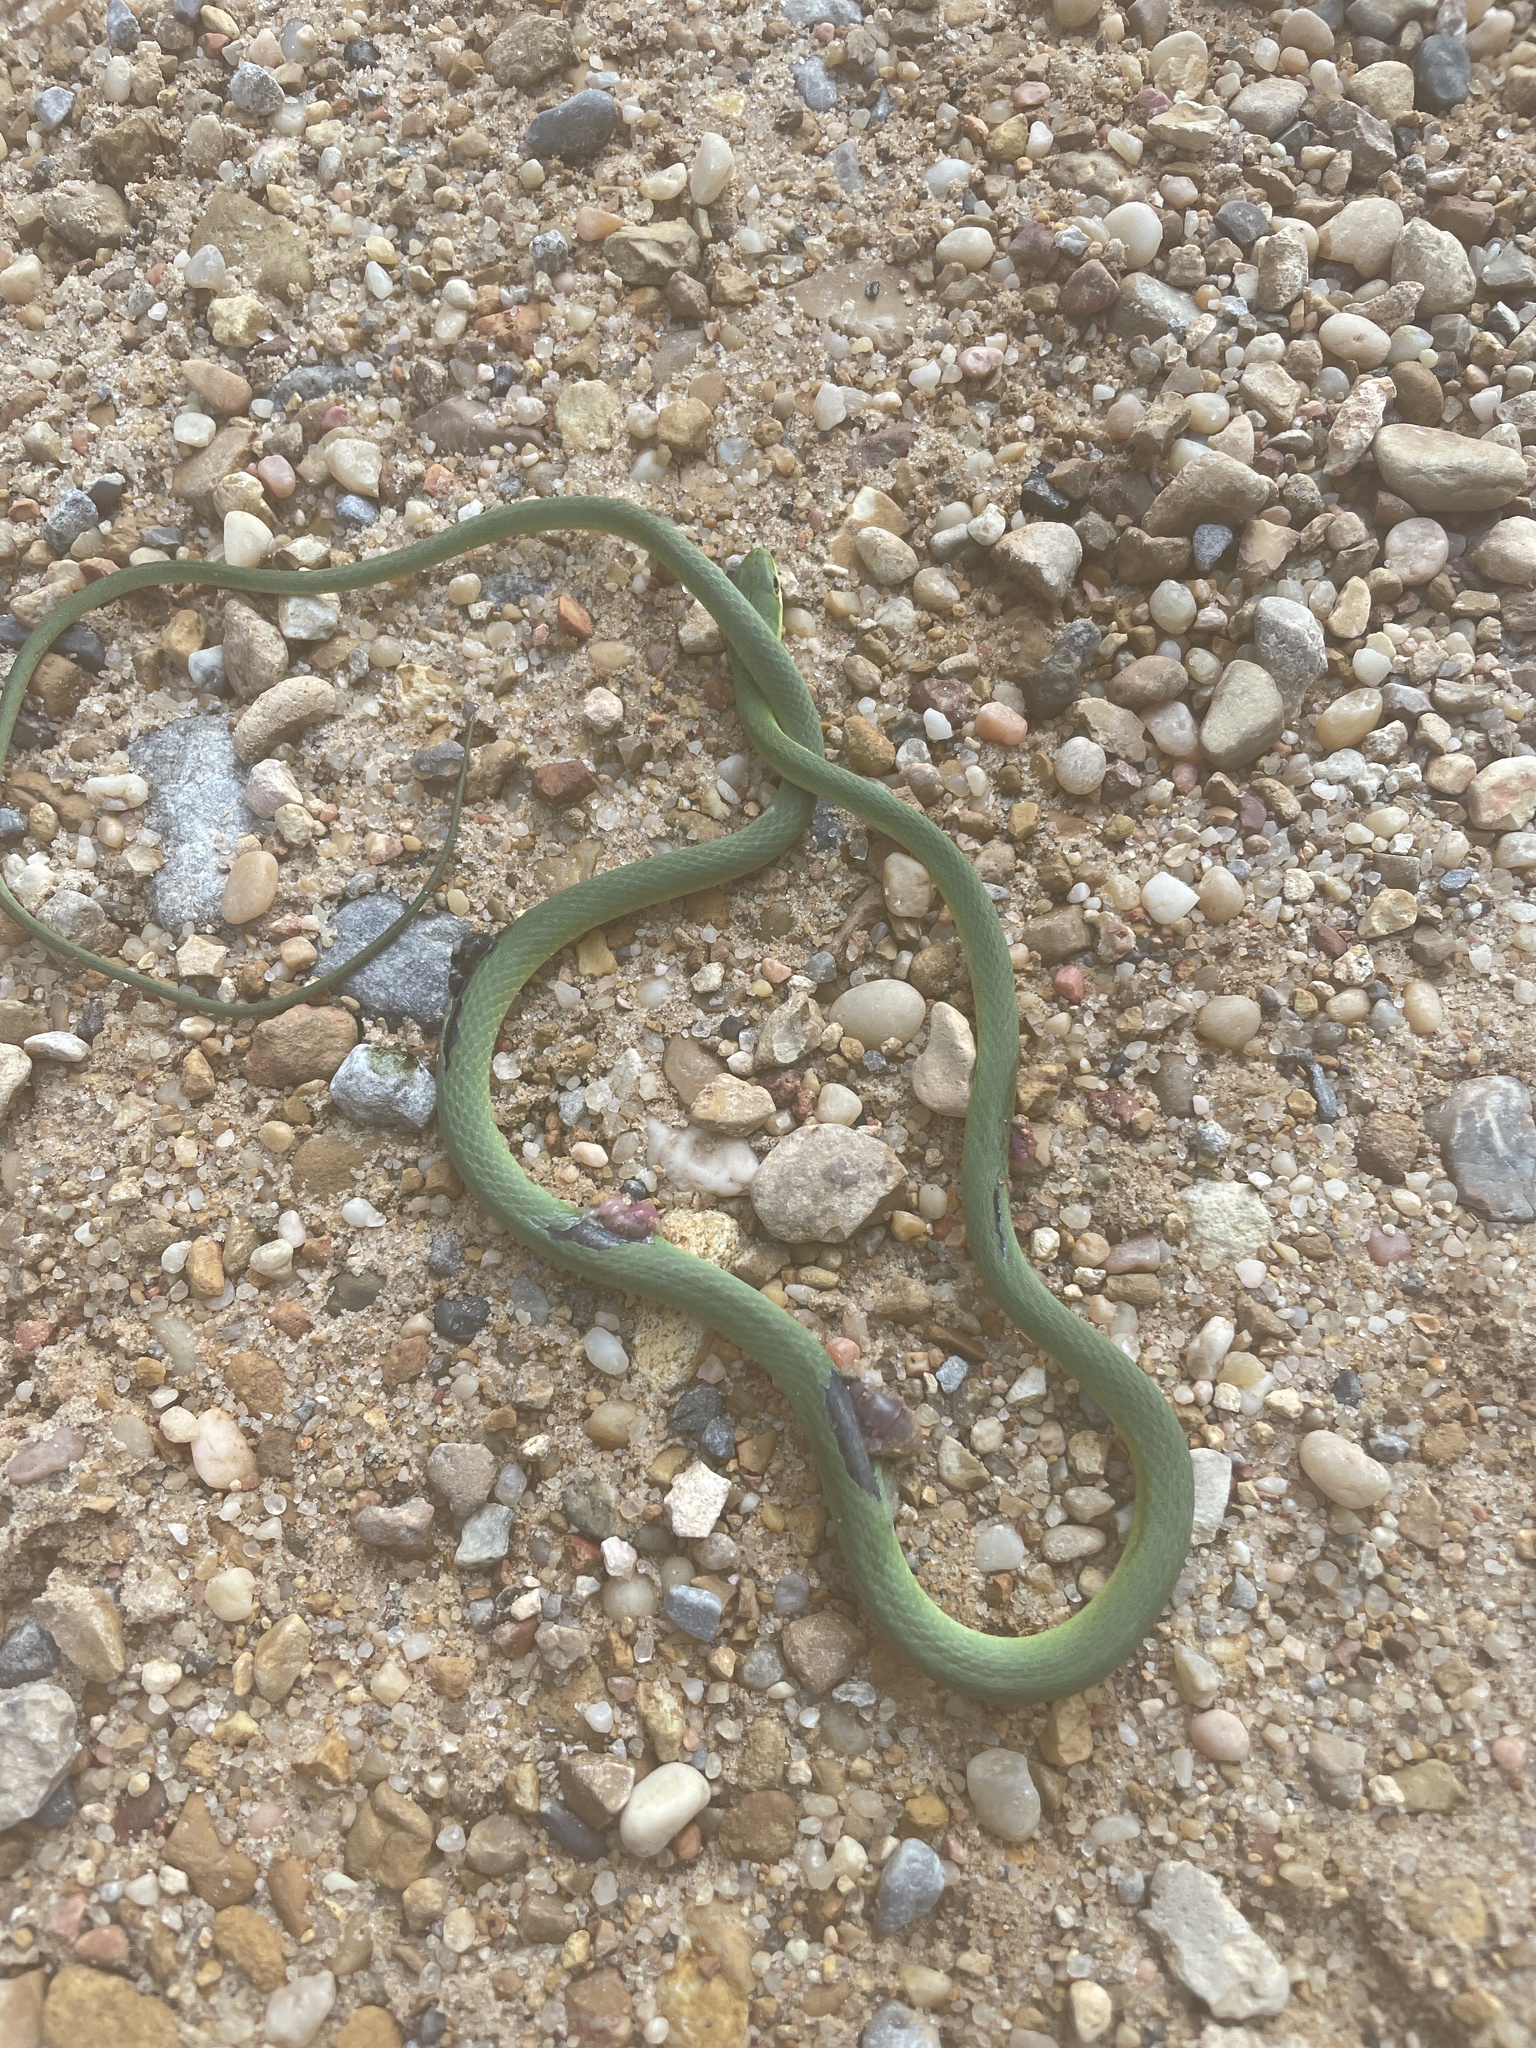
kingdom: Animalia
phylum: Chordata
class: Squamata
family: Colubridae
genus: Opheodrys
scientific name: Opheodrys aestivus
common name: Rough greensnake
